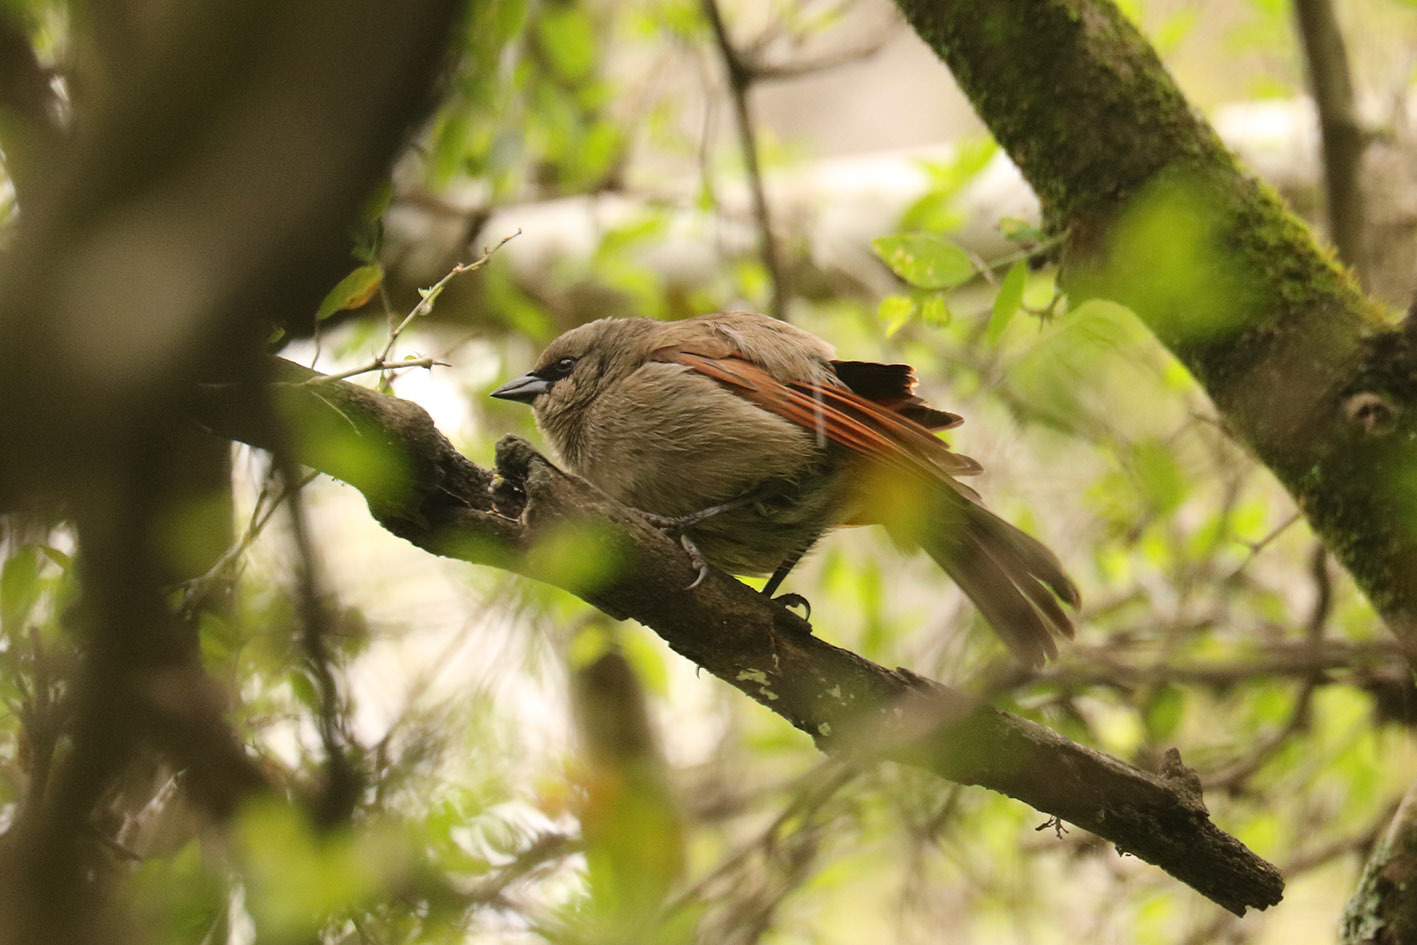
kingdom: Animalia
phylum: Chordata
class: Aves
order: Passeriformes
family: Icteridae
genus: Agelaioides
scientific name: Agelaioides badius
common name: Baywing
